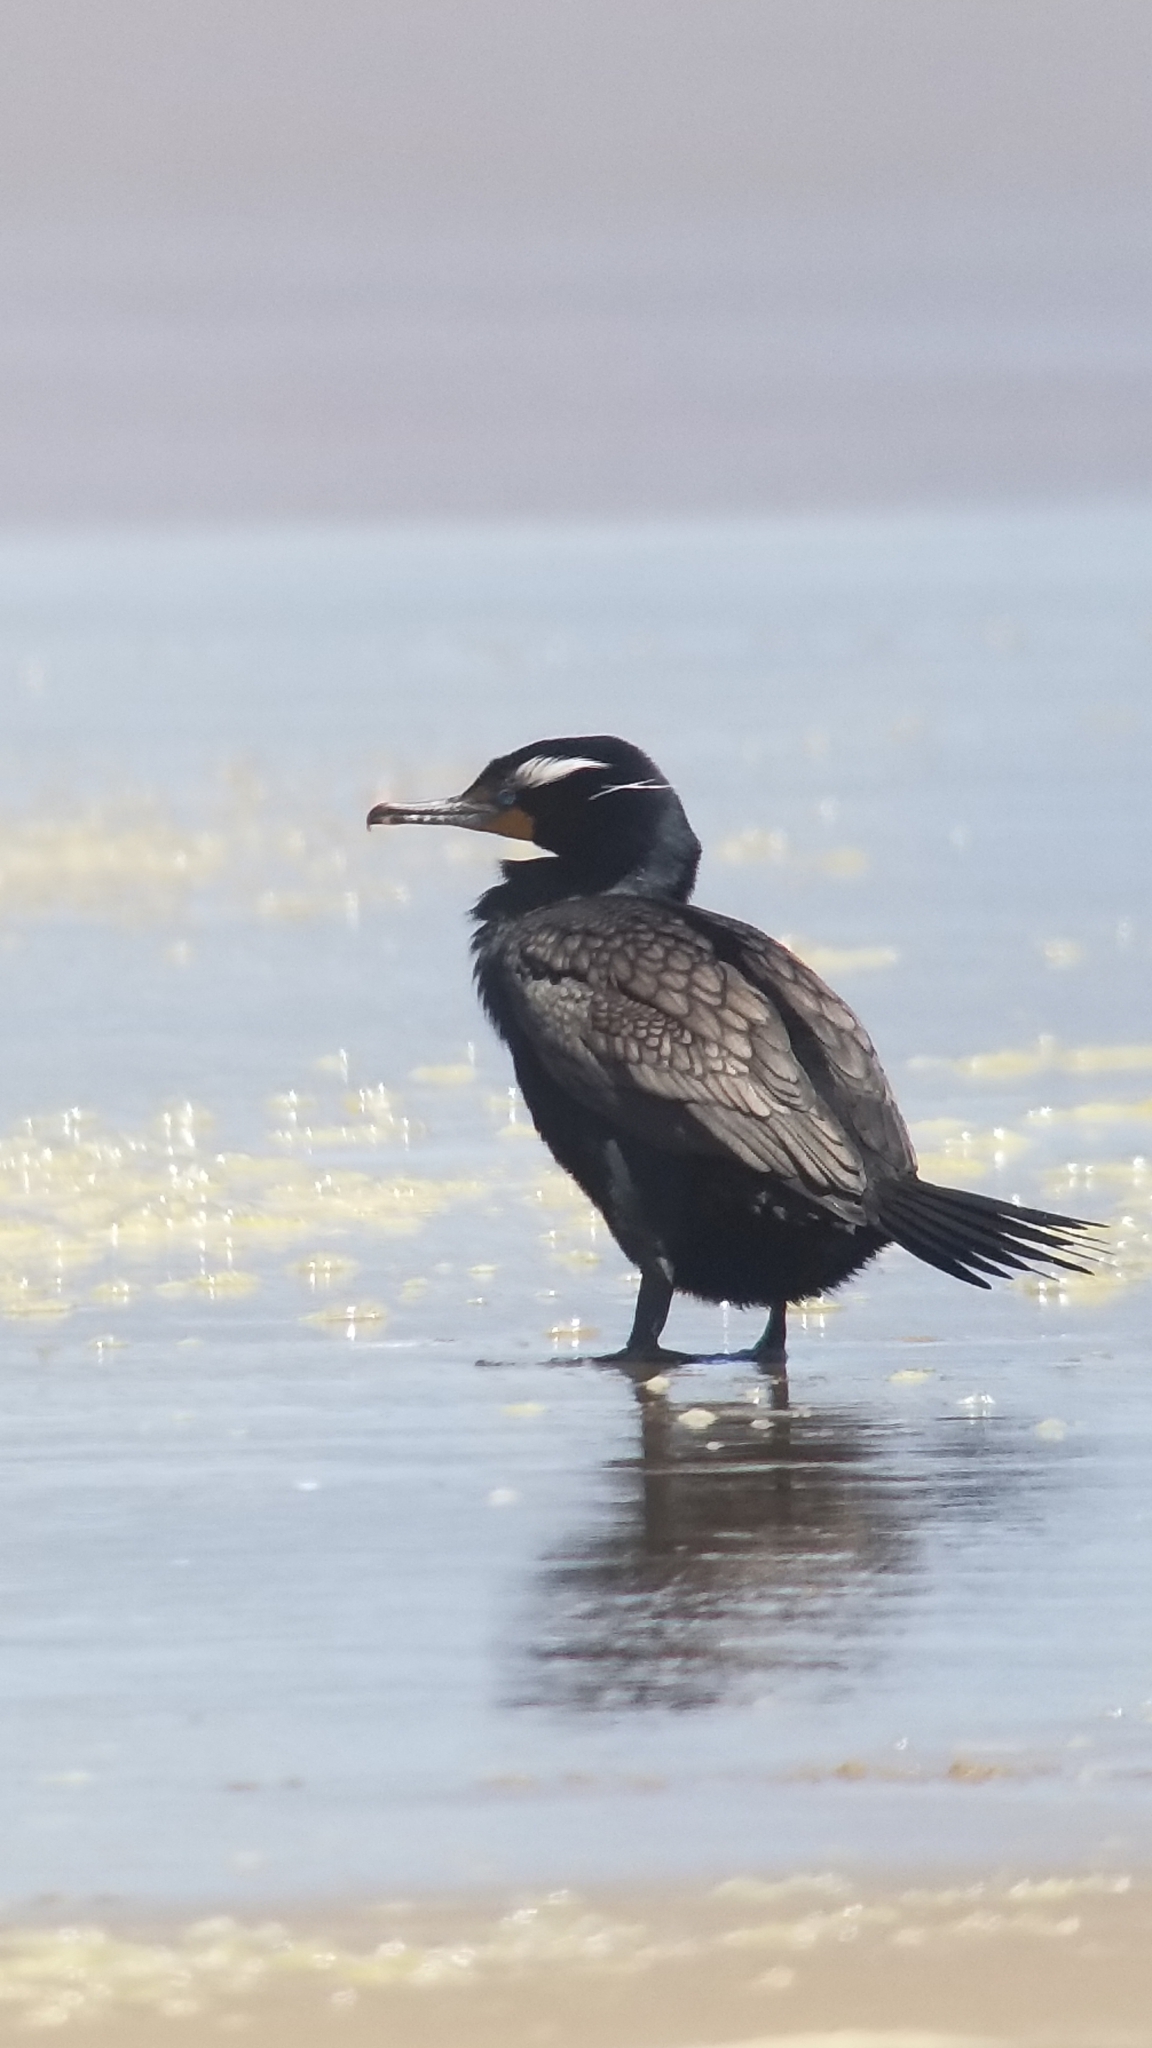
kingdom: Animalia
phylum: Chordata
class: Aves
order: Suliformes
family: Phalacrocoracidae
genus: Phalacrocorax
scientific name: Phalacrocorax auritus
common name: Double-crested cormorant
